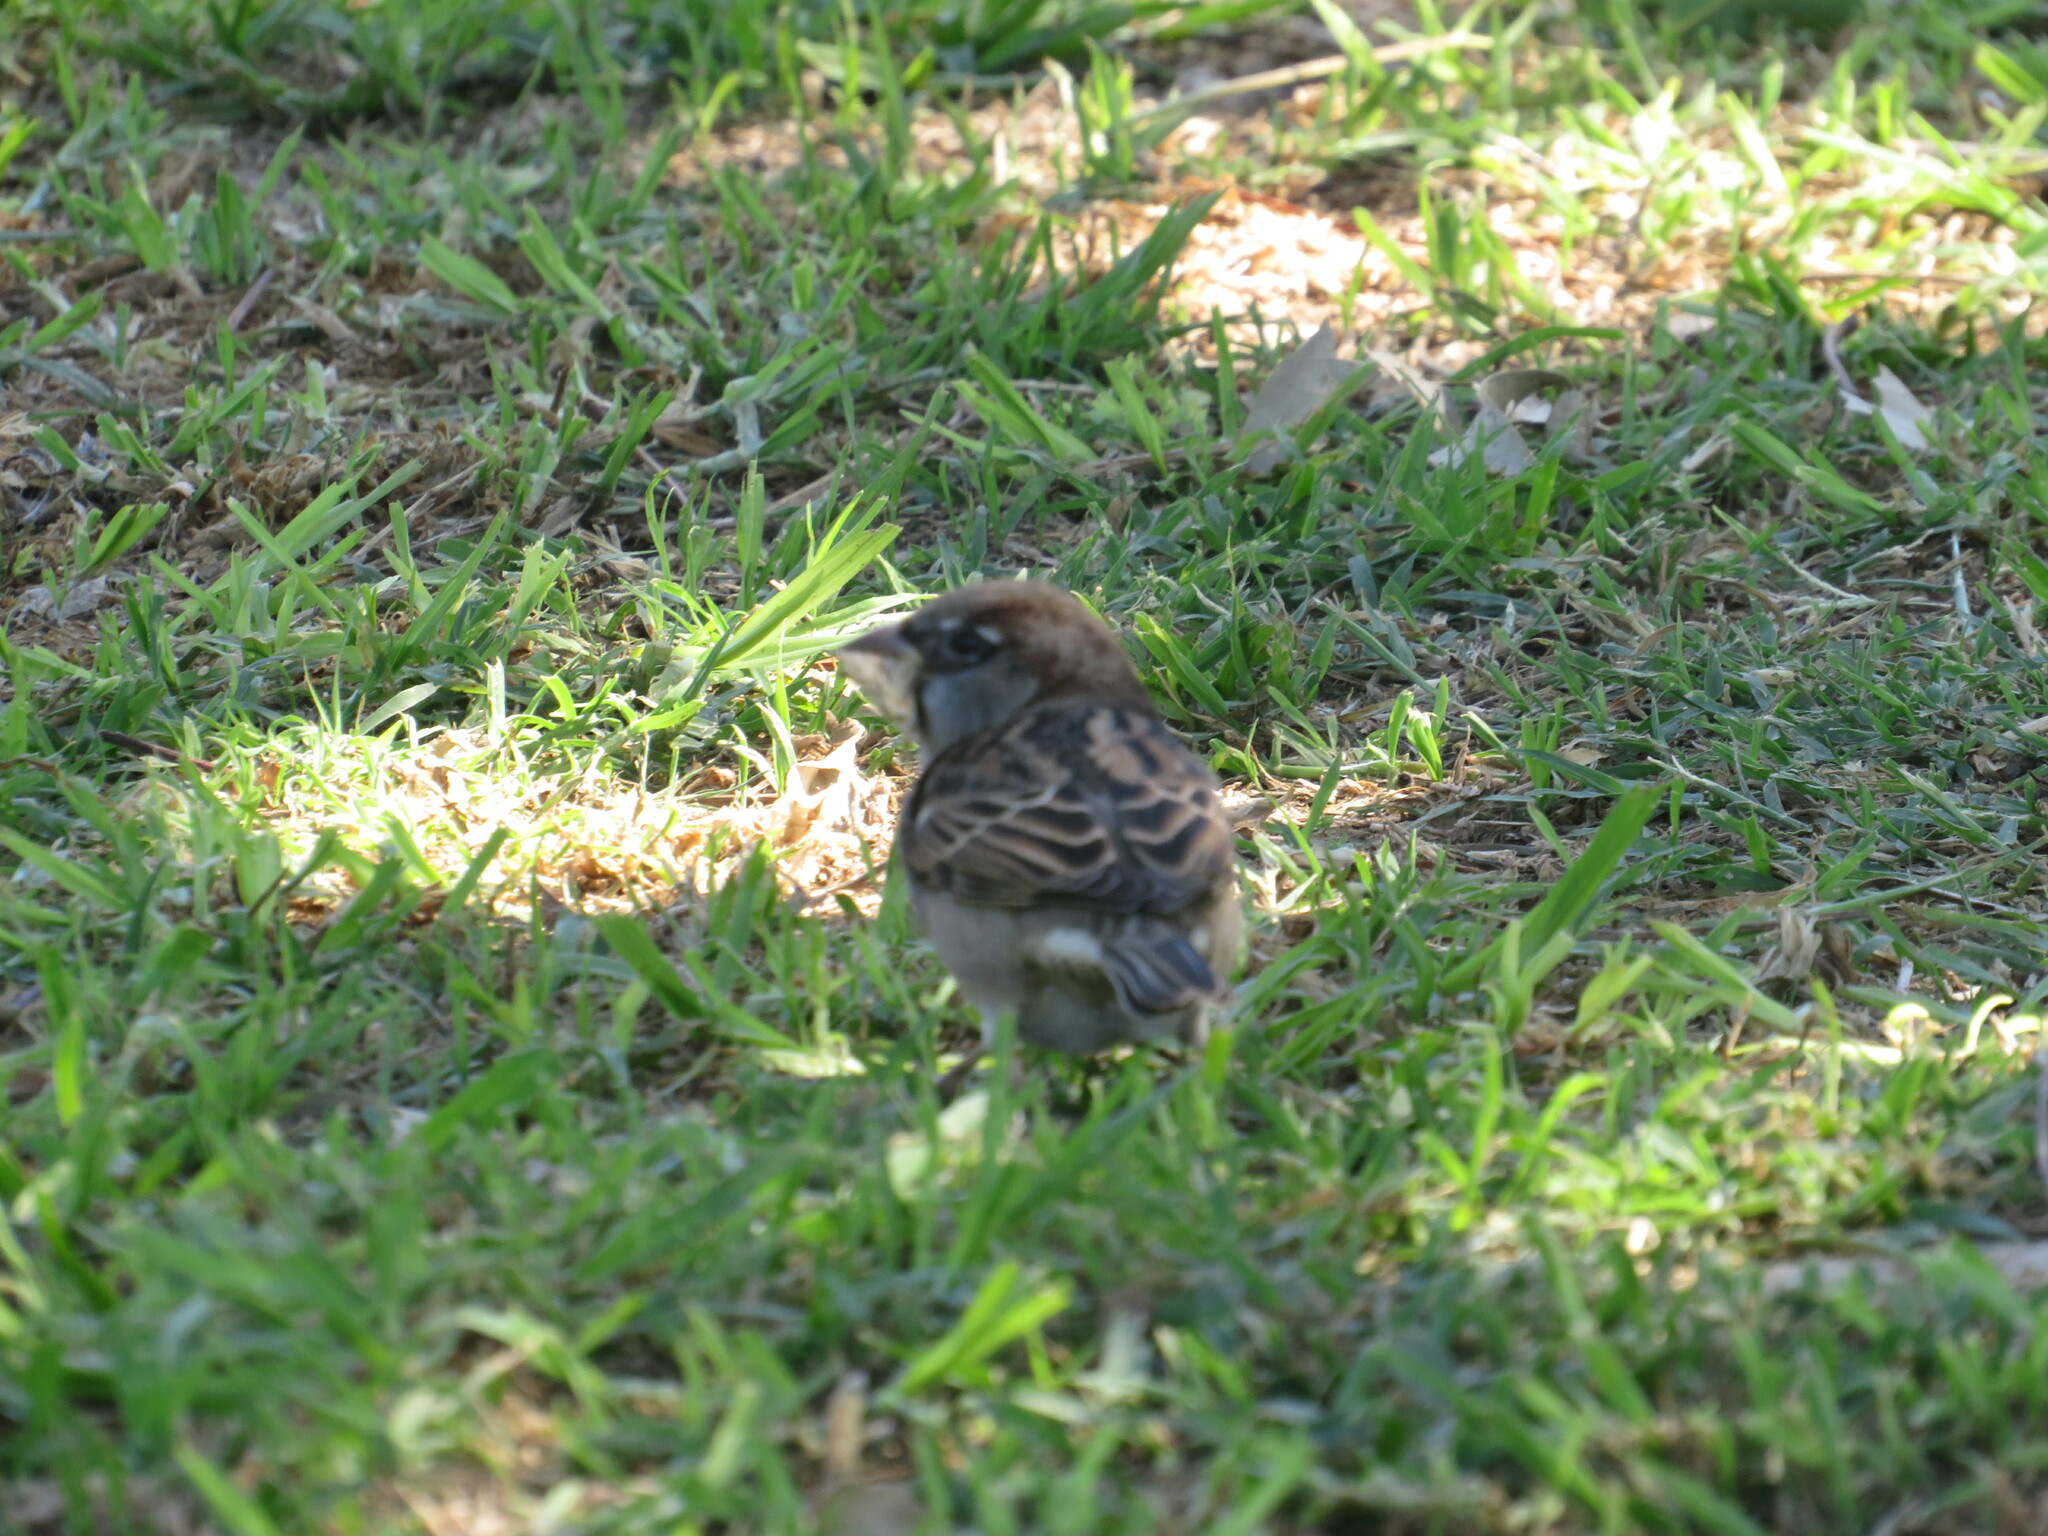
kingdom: Animalia
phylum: Chordata
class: Aves
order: Passeriformes
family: Passeridae
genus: Passer
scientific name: Passer domesticus
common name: House sparrow
